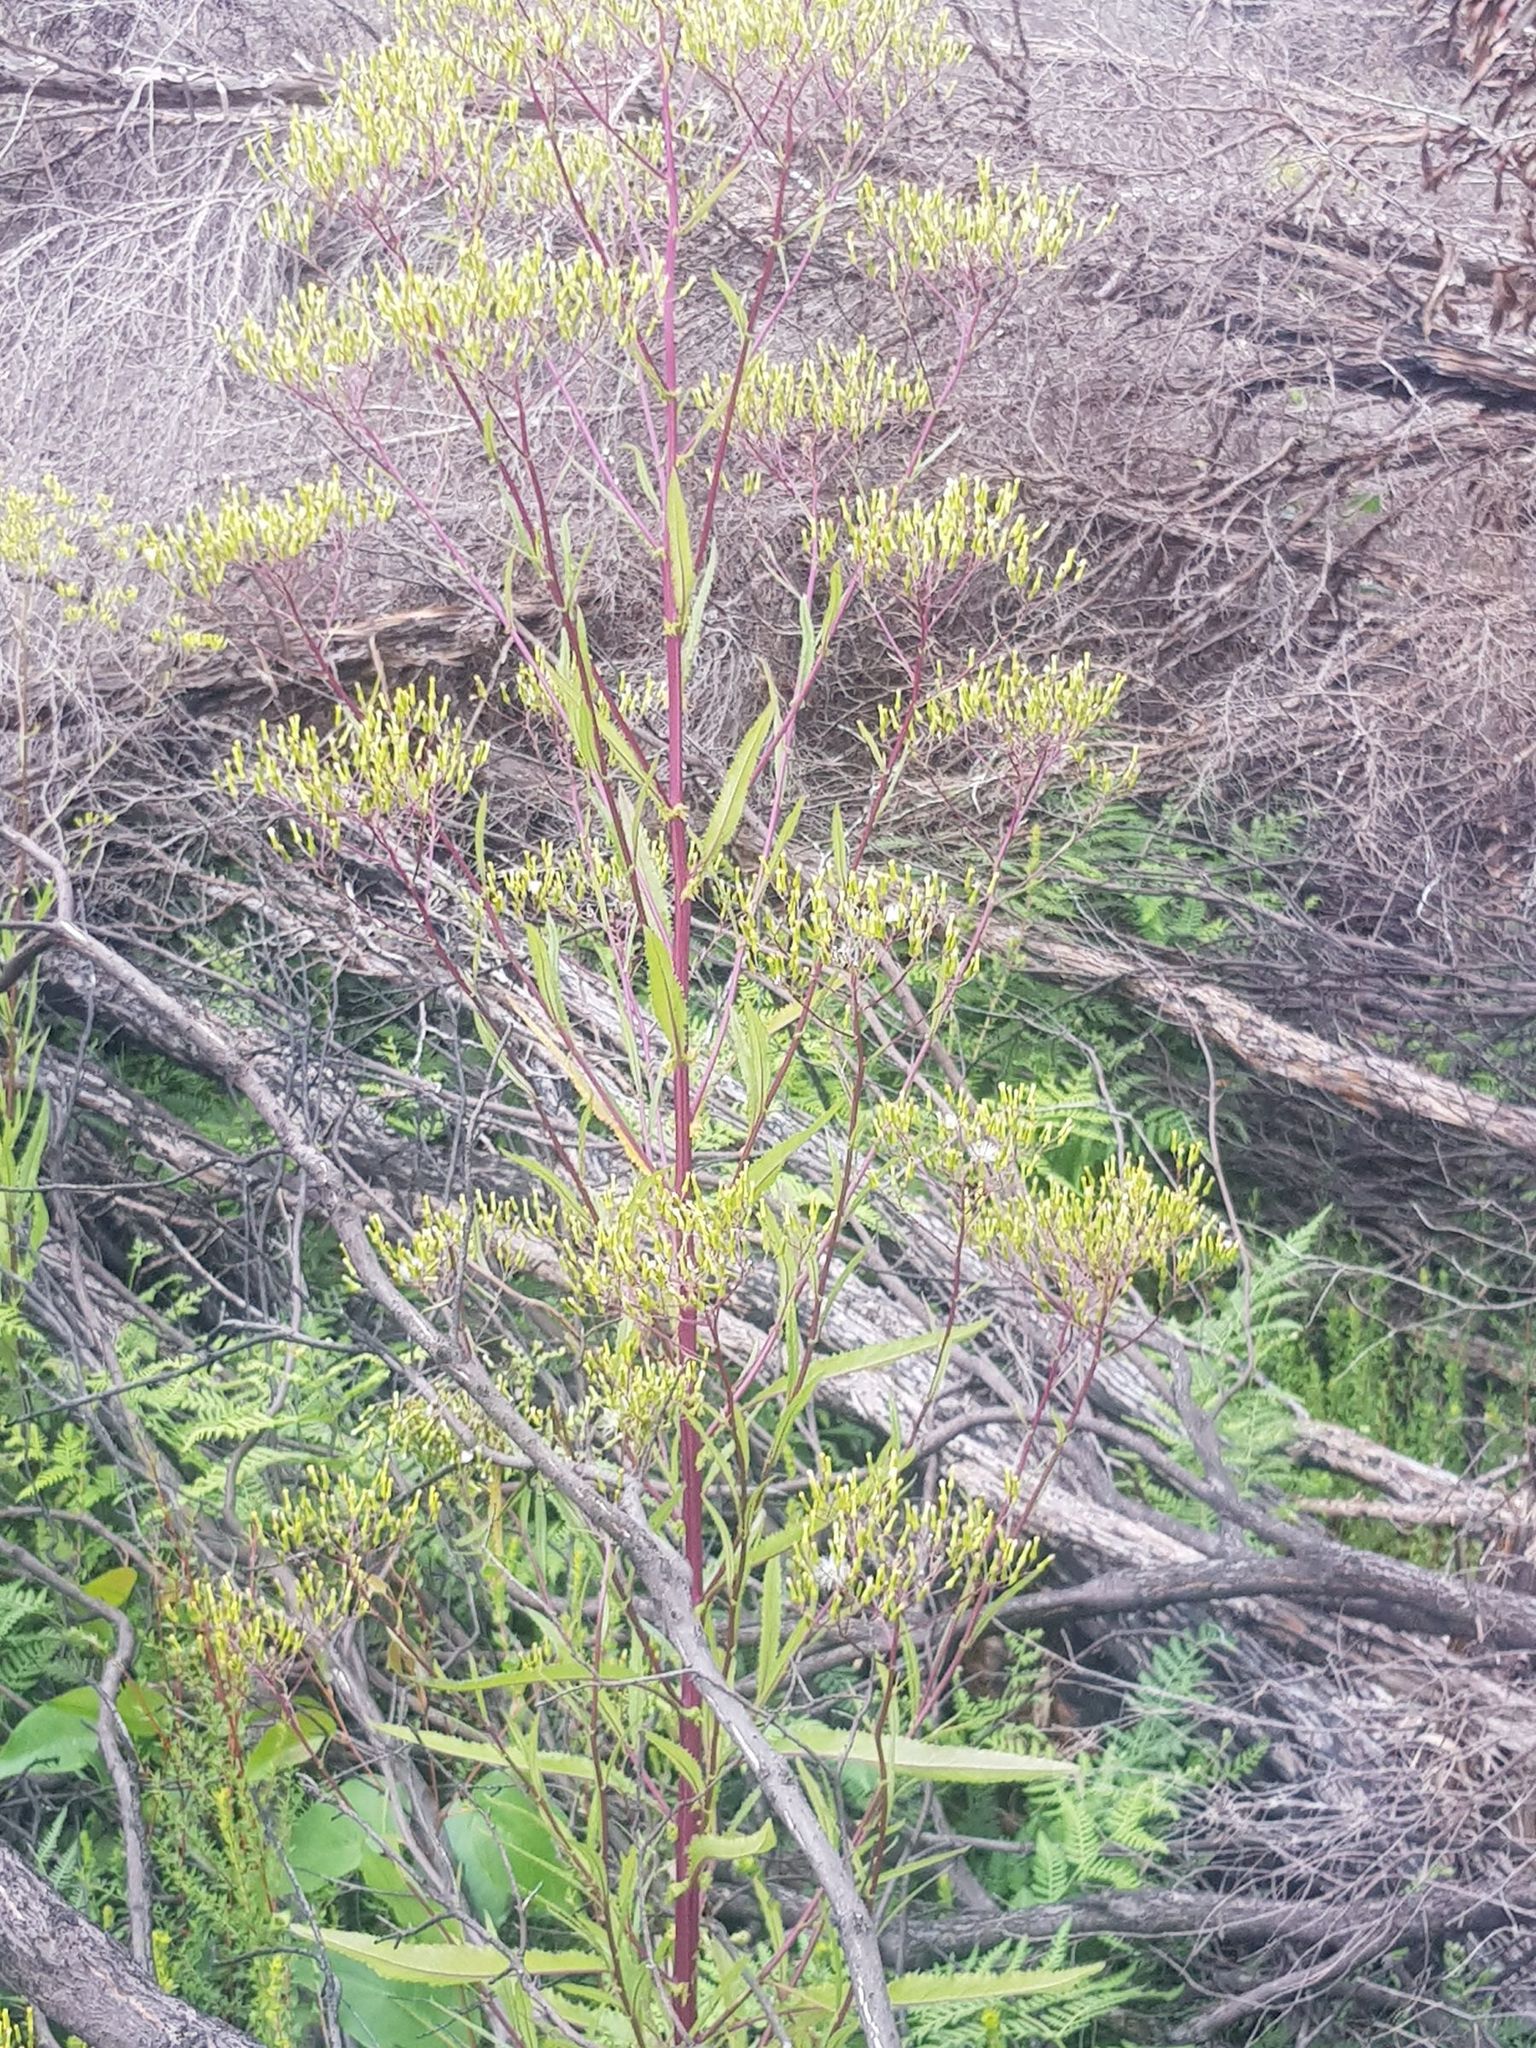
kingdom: Plantae
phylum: Tracheophyta
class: Magnoliopsida
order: Asterales
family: Asteraceae
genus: Senecio
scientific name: Senecio minimus
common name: Toothed fireweed
